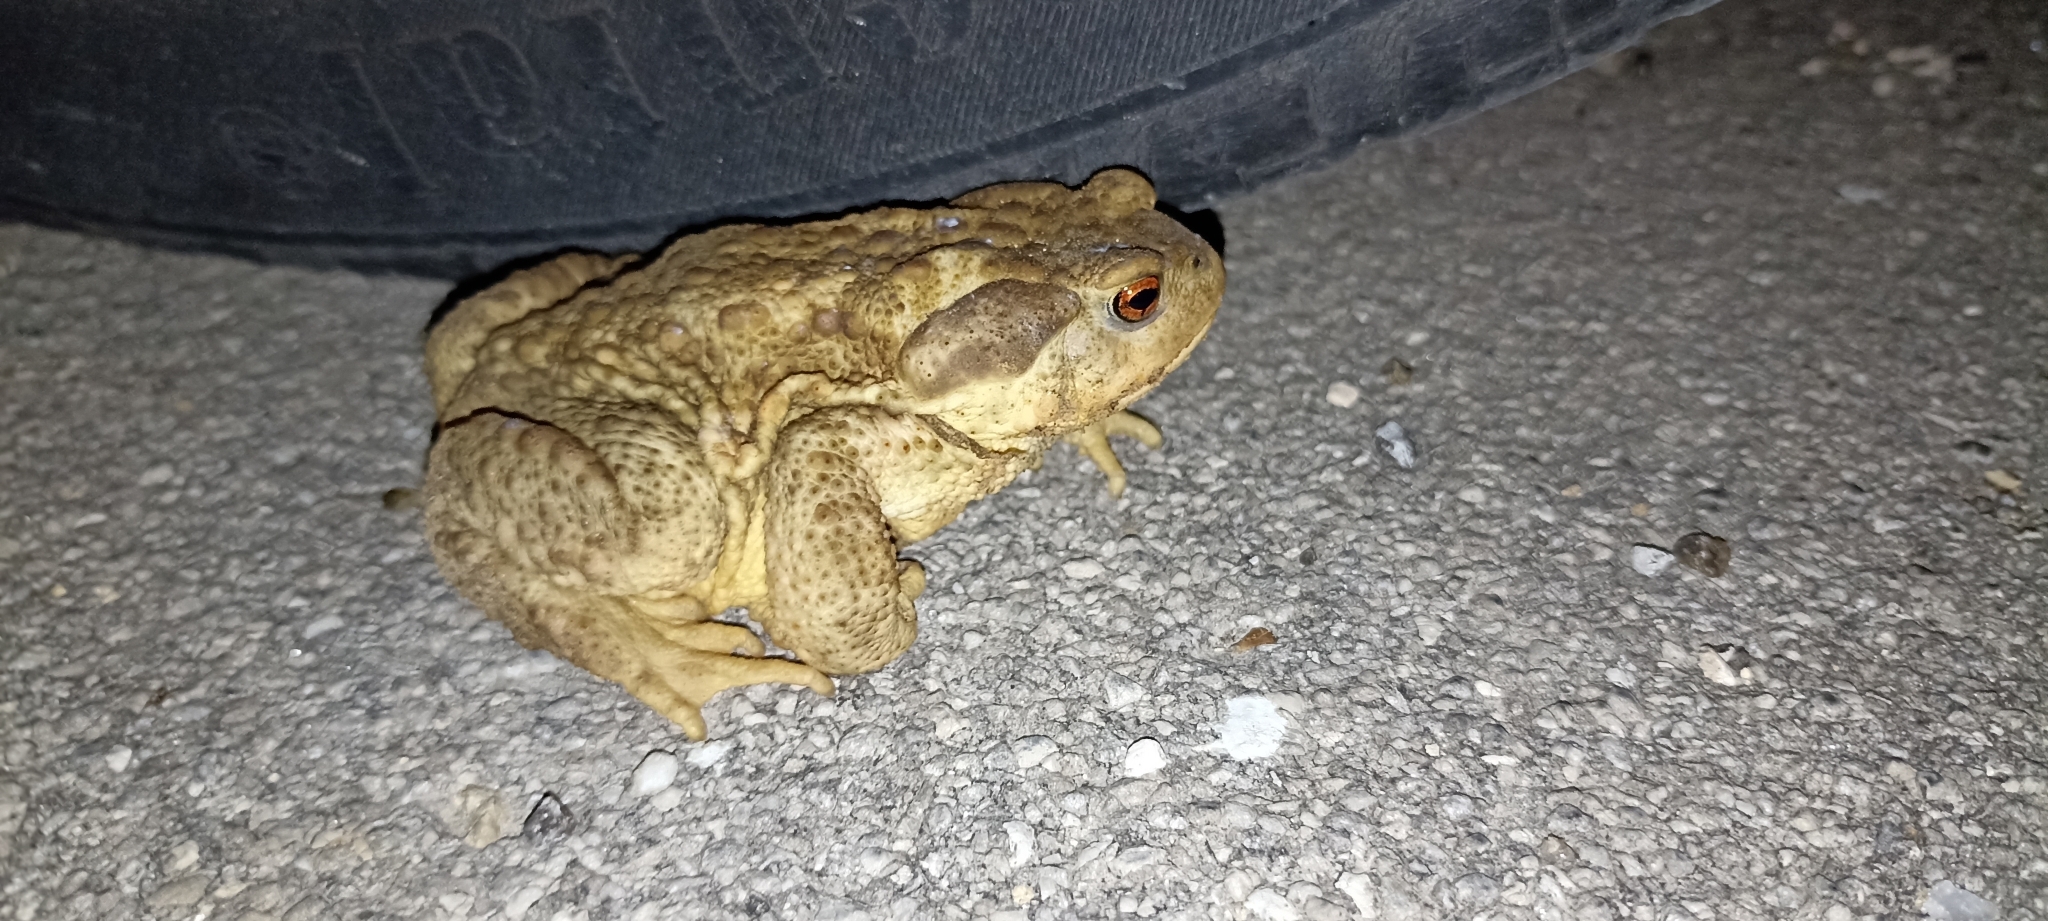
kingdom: Animalia
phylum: Chordata
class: Amphibia
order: Anura
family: Bufonidae
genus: Bufo
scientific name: Bufo spinosus
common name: Western common toad
